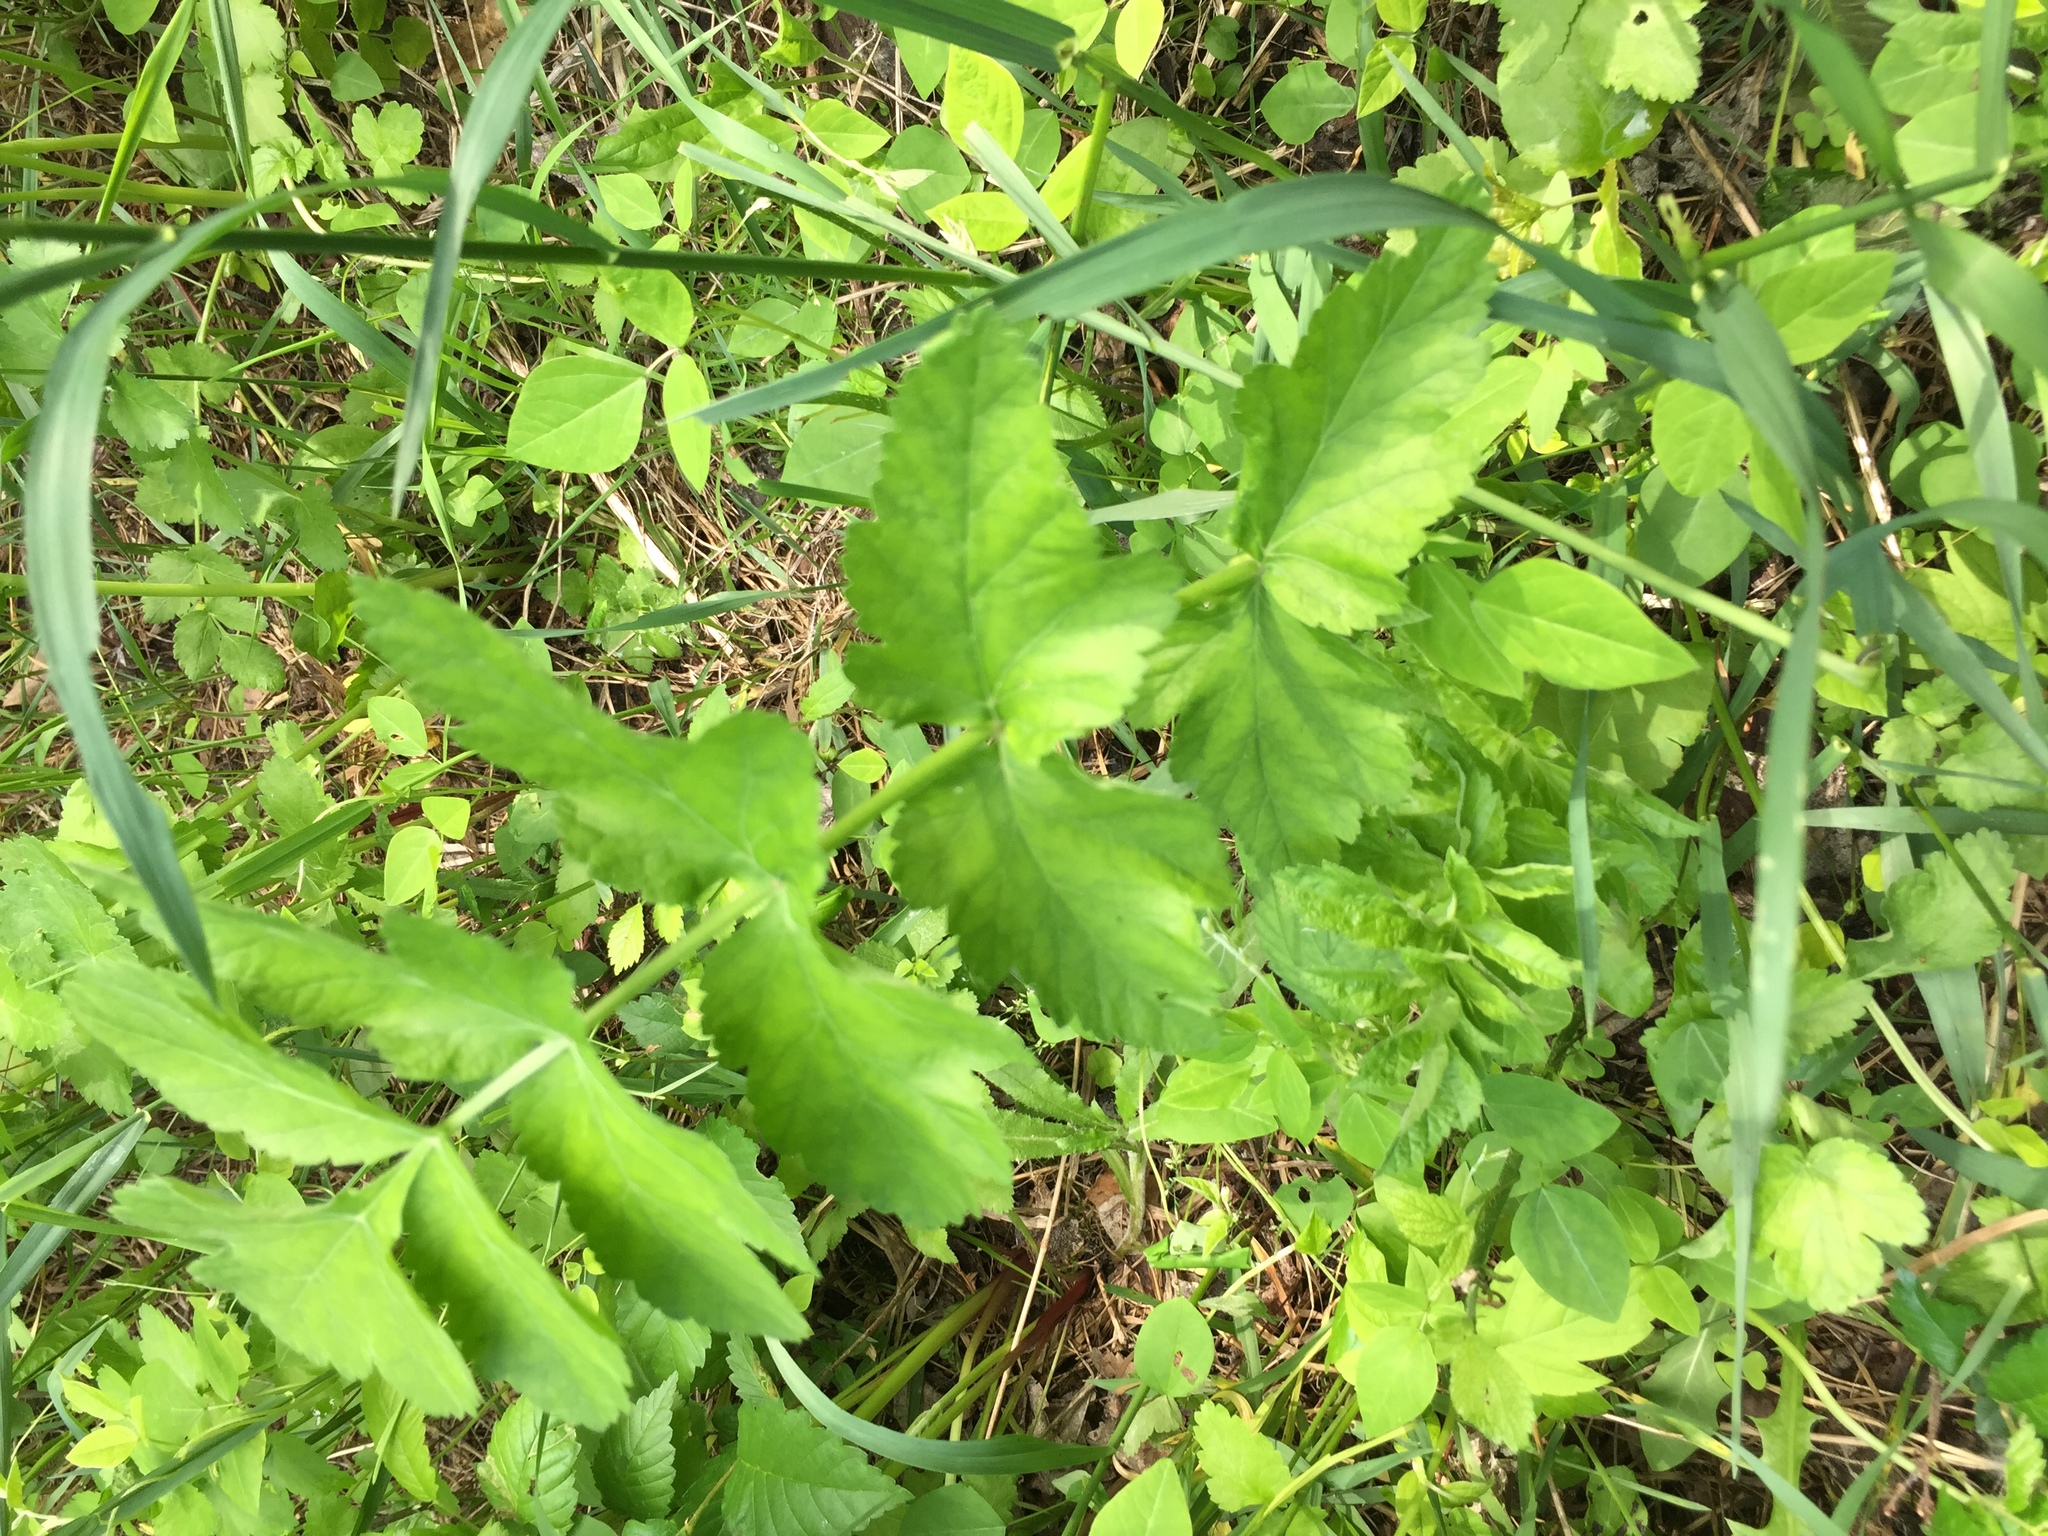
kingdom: Plantae
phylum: Tracheophyta
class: Magnoliopsida
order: Apiales
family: Apiaceae
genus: Pastinaca
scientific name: Pastinaca sativa
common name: Wild parsnip
